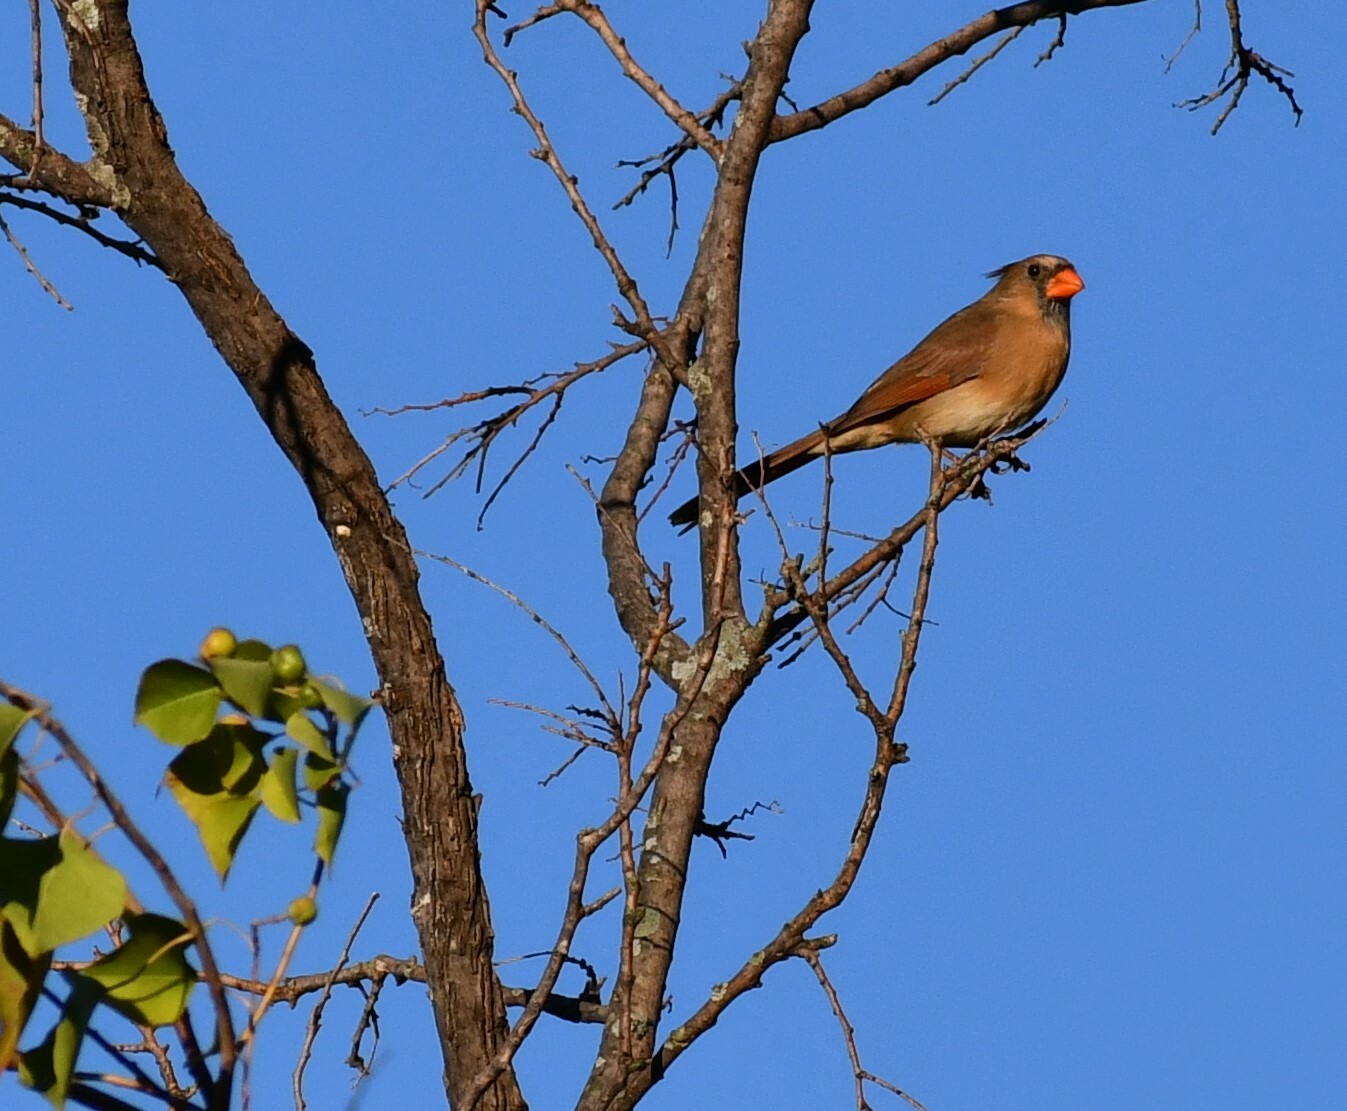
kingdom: Animalia
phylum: Chordata
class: Aves
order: Passeriformes
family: Cardinalidae
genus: Cardinalis
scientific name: Cardinalis cardinalis
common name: Northern cardinal
